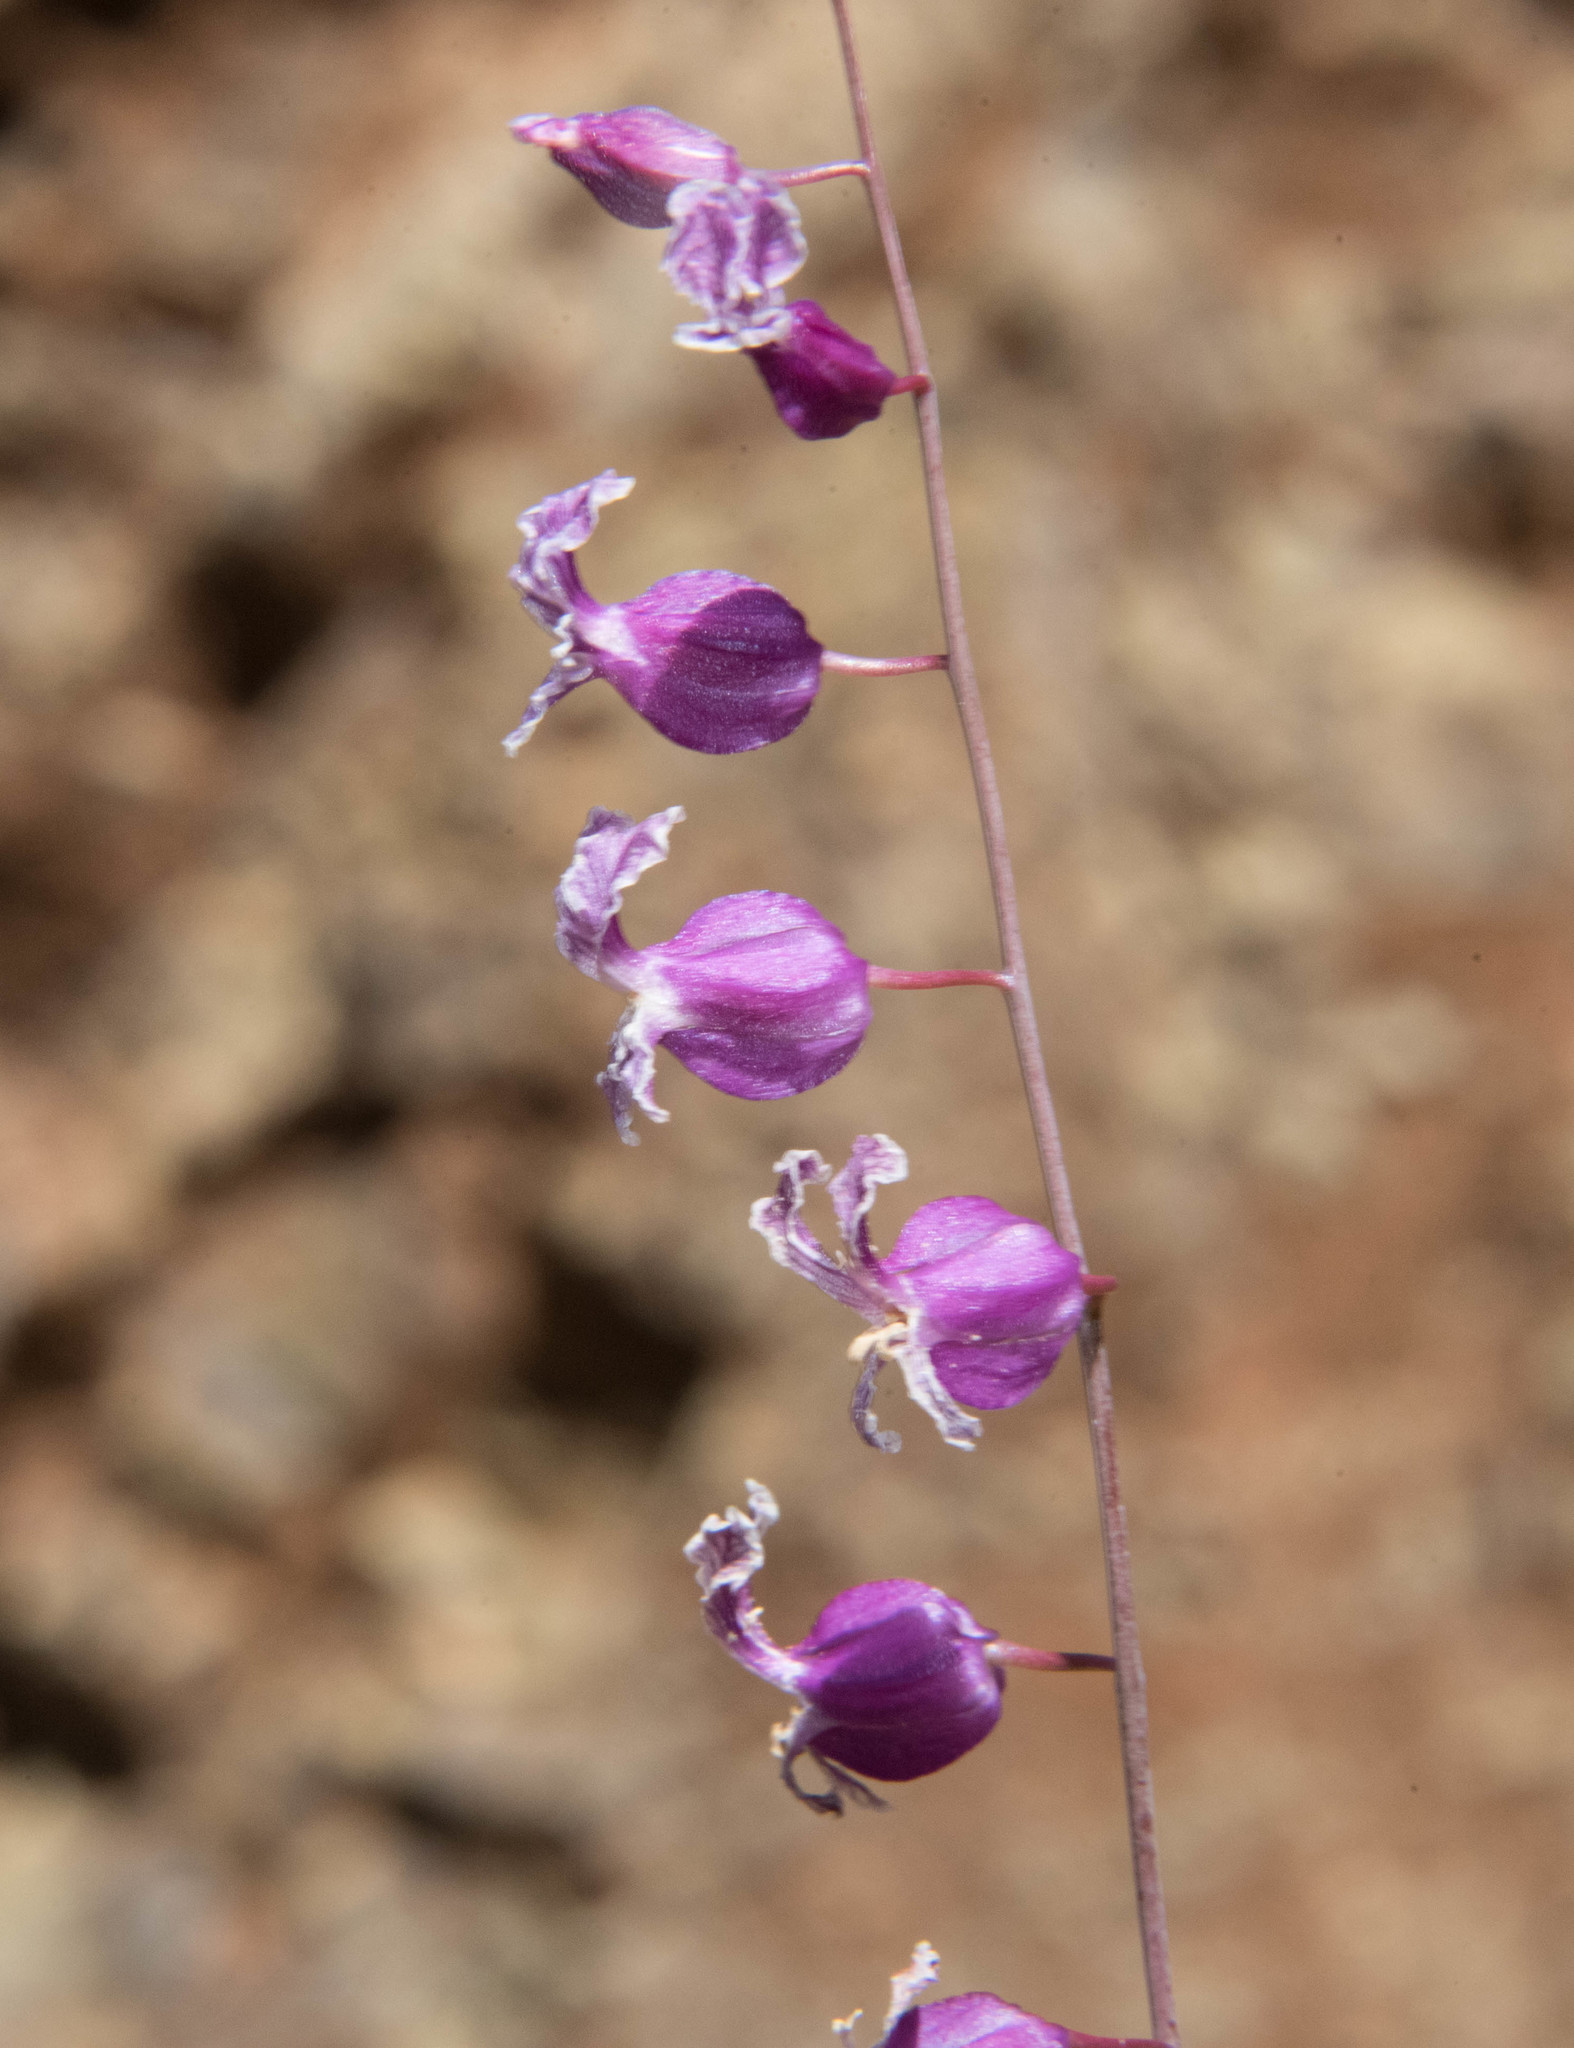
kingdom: Plantae
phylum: Tracheophyta
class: Magnoliopsida
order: Brassicales
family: Brassicaceae
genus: Streptanthus
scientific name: Streptanthus glandulosus
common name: Jewel-flower
